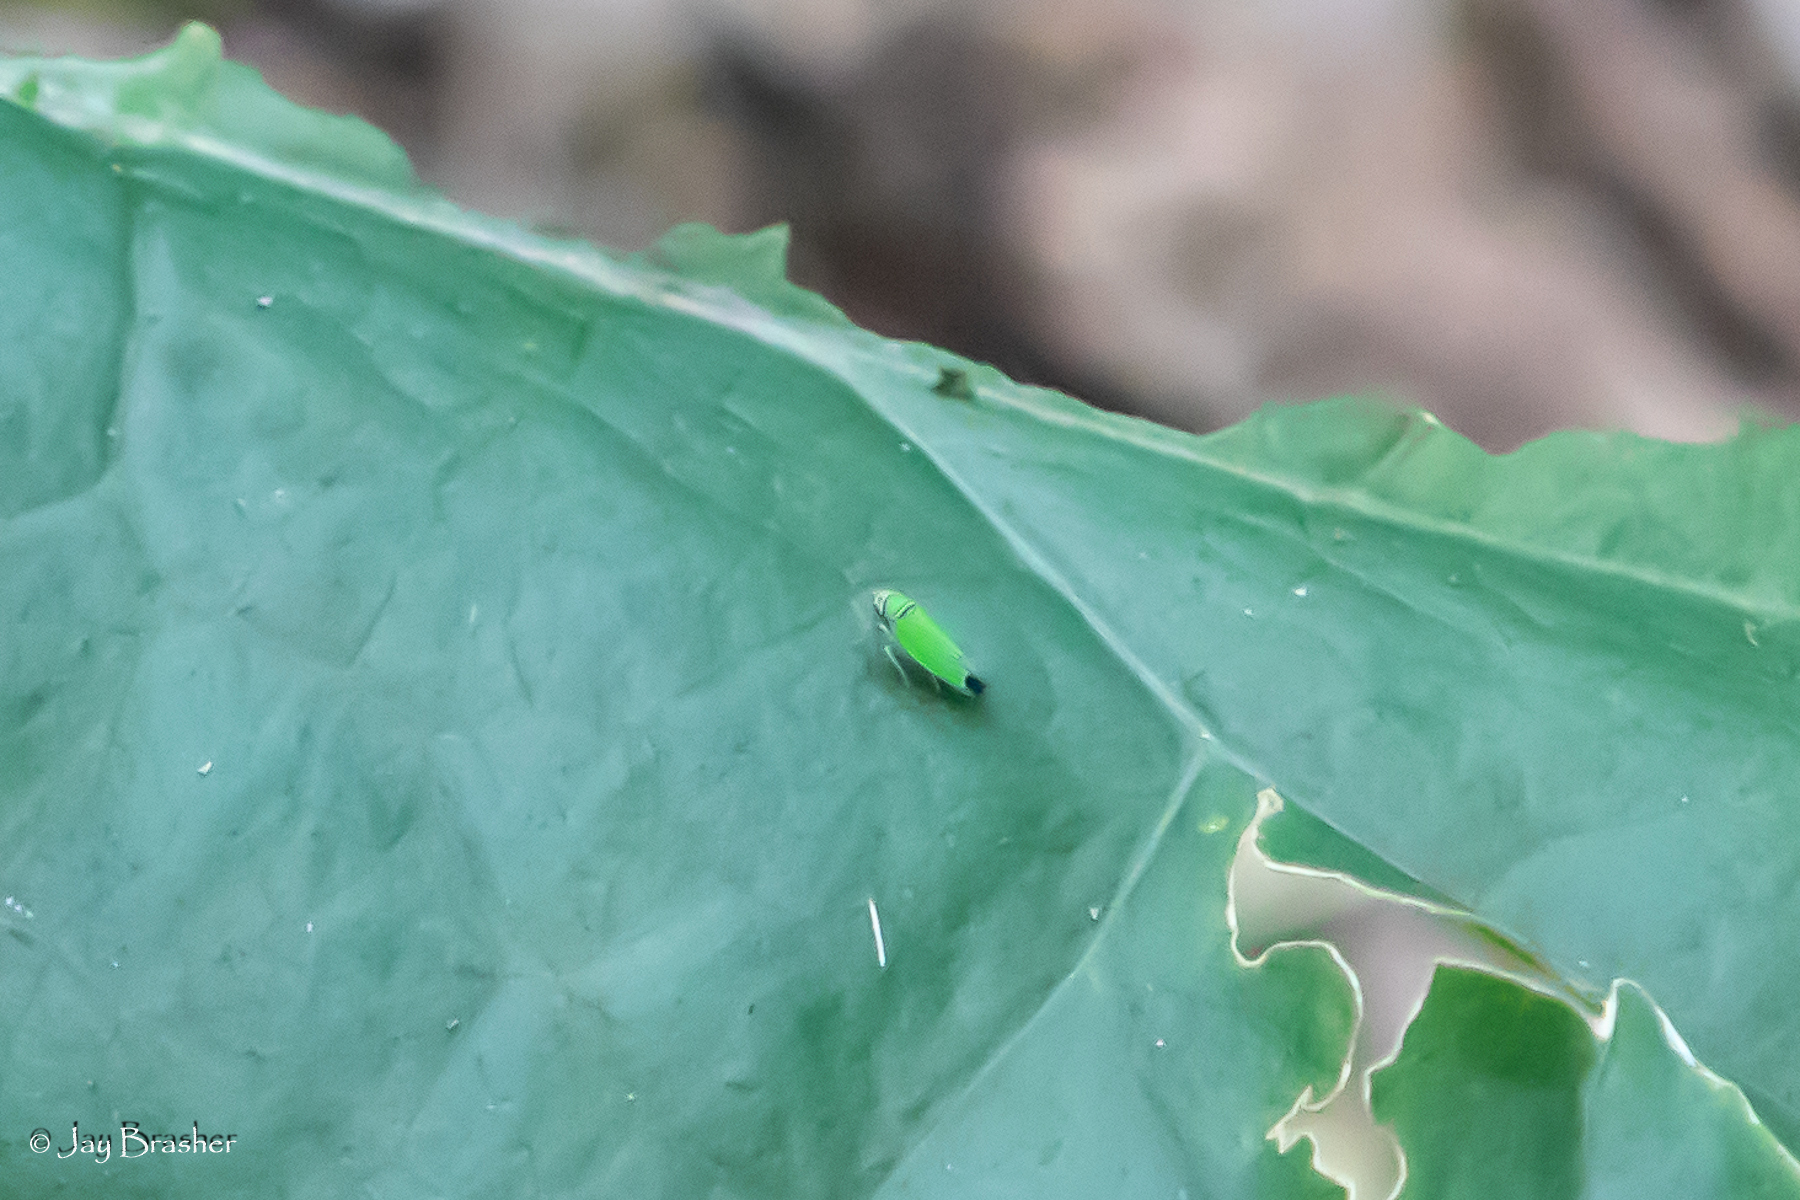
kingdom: Animalia
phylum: Arthropoda
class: Insecta
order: Hemiptera
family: Cicadellidae
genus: Tylozygus
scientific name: Tylozygus geometricus
